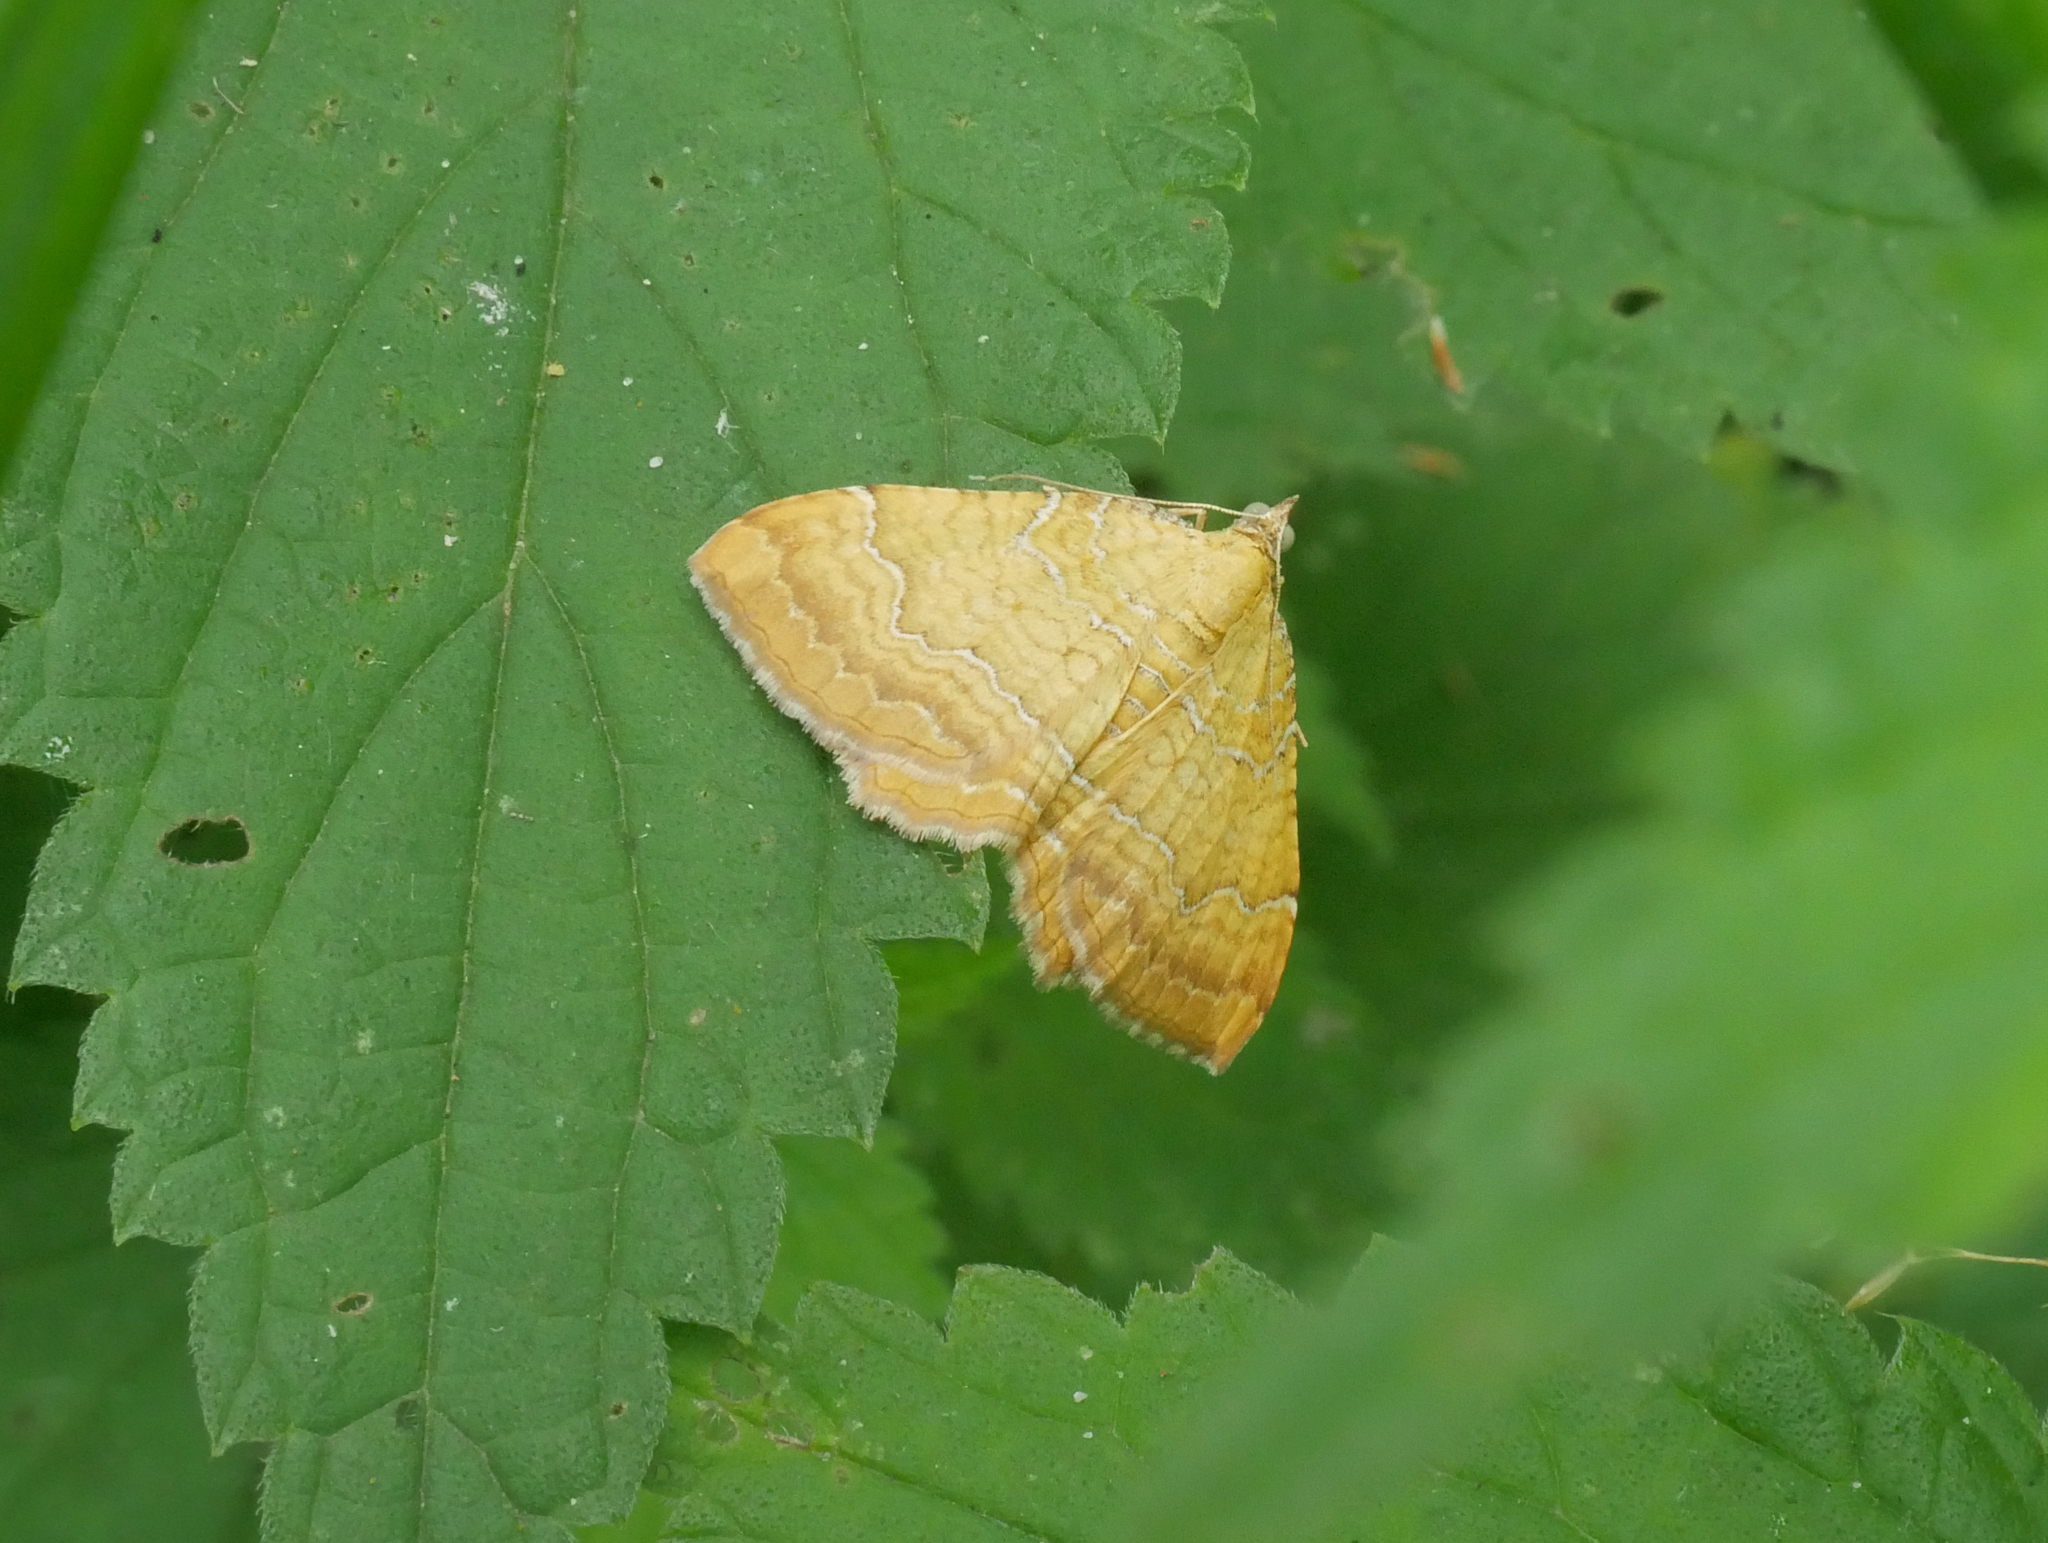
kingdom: Animalia
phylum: Arthropoda
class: Insecta
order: Lepidoptera
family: Geometridae
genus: Camptogramma
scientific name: Camptogramma bilineata
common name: Yellow shell
